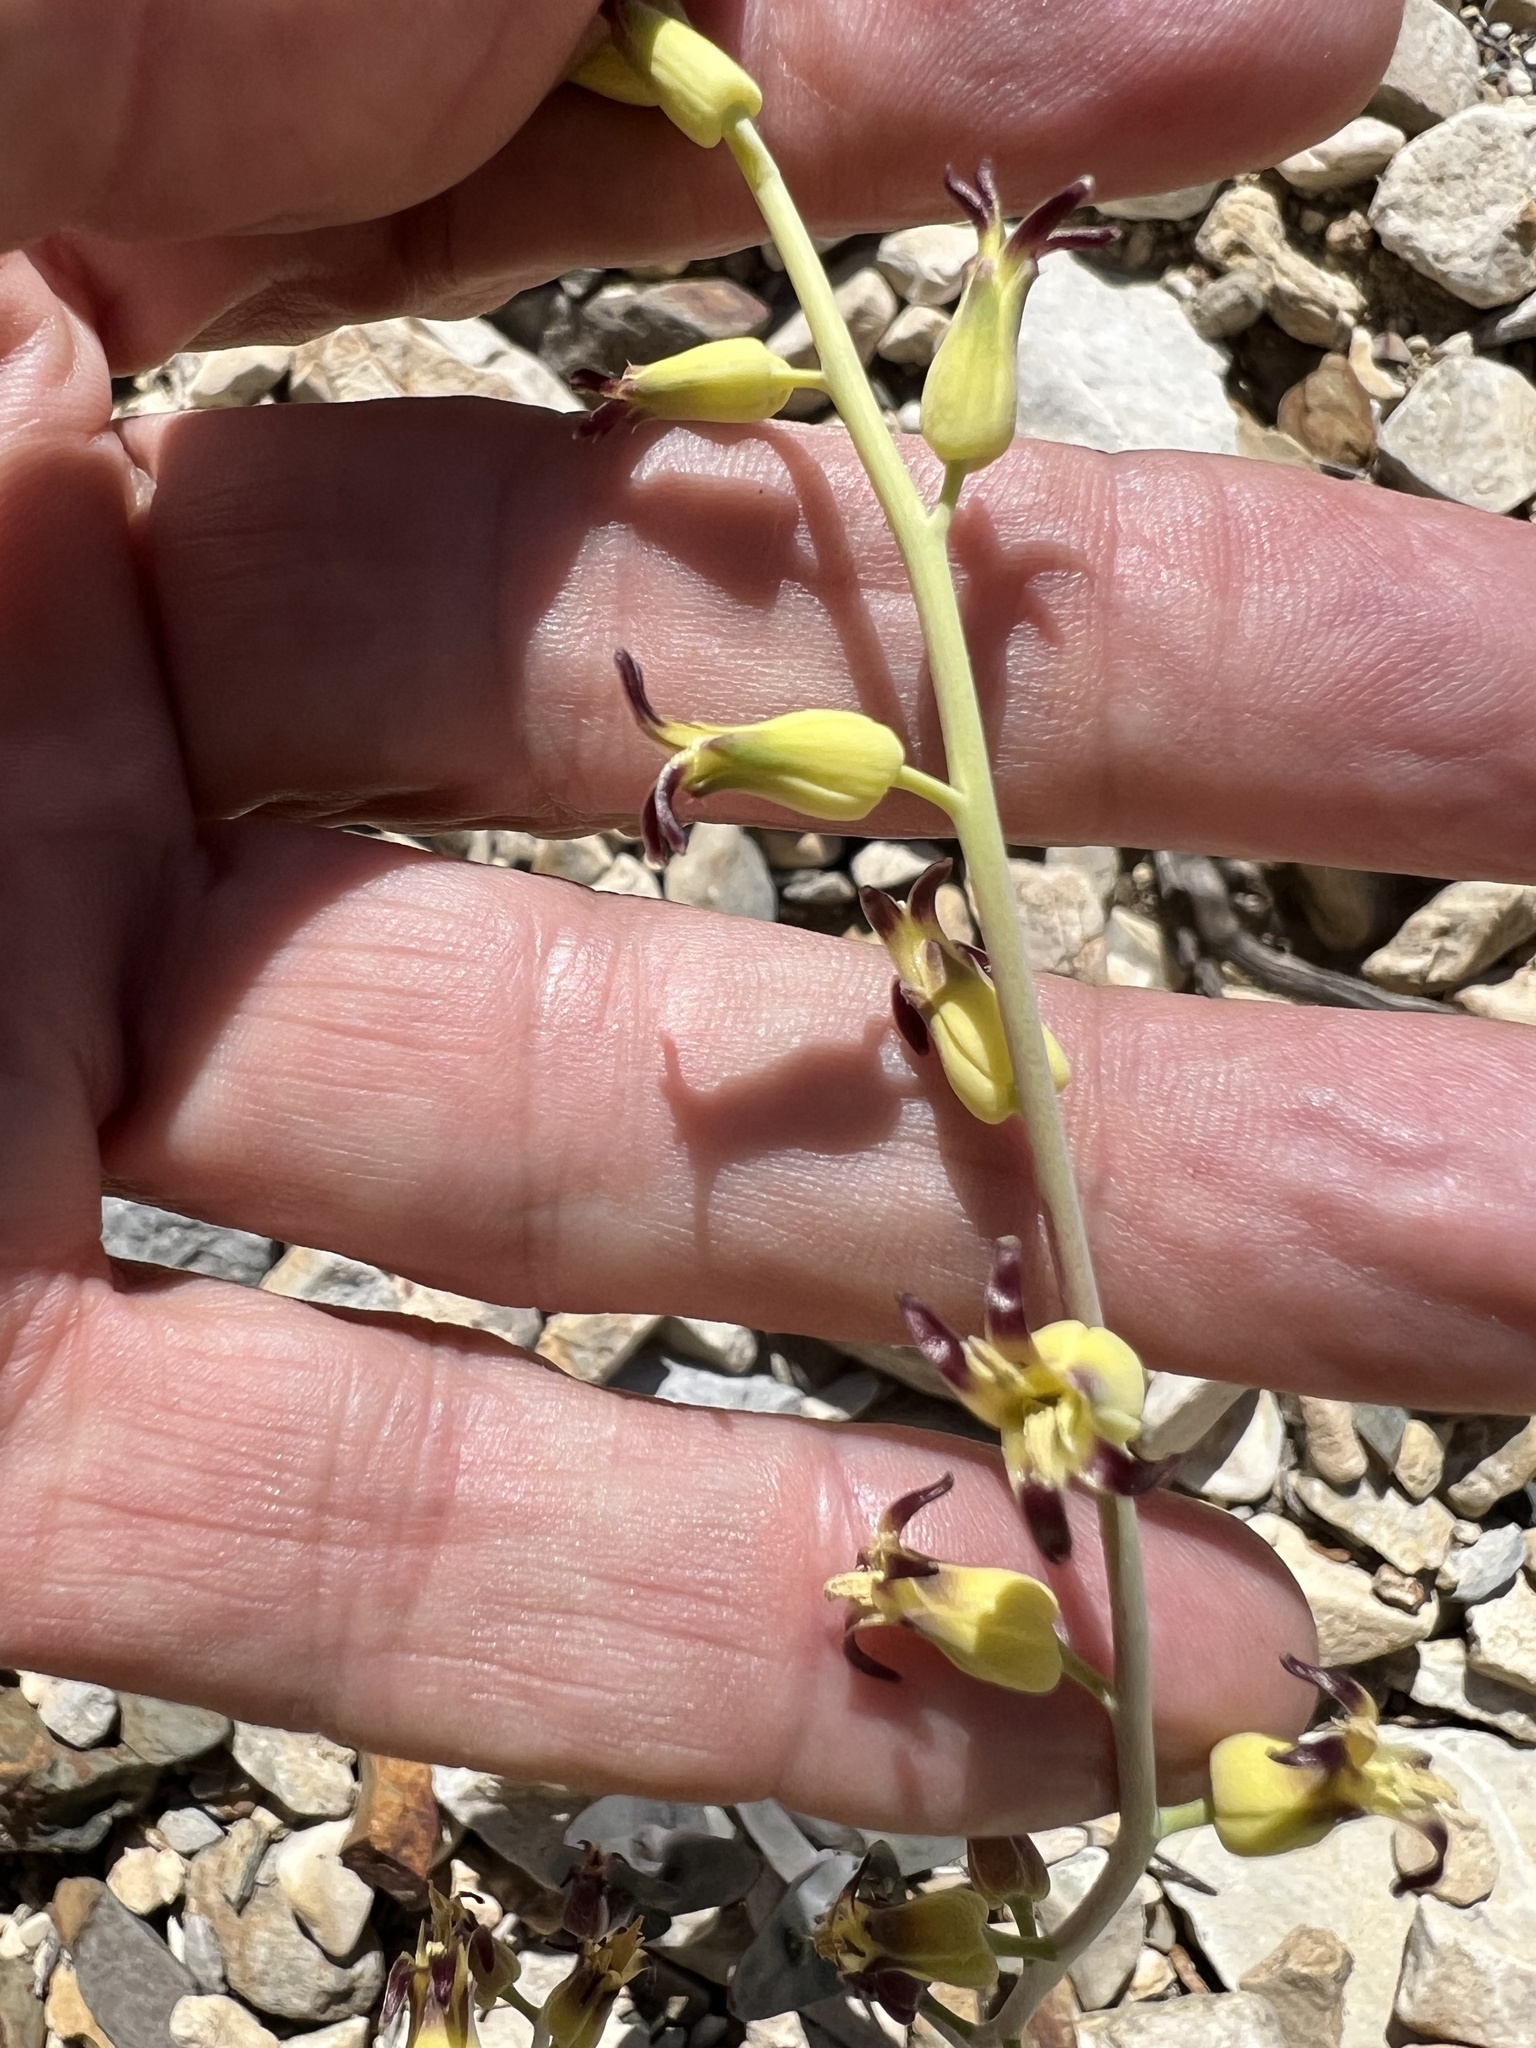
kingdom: Plantae
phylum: Tracheophyta
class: Magnoliopsida
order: Brassicales
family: Brassicaceae
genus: Streptanthus
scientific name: Streptanthus cordatus
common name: Heart-leaf jewel-flower
